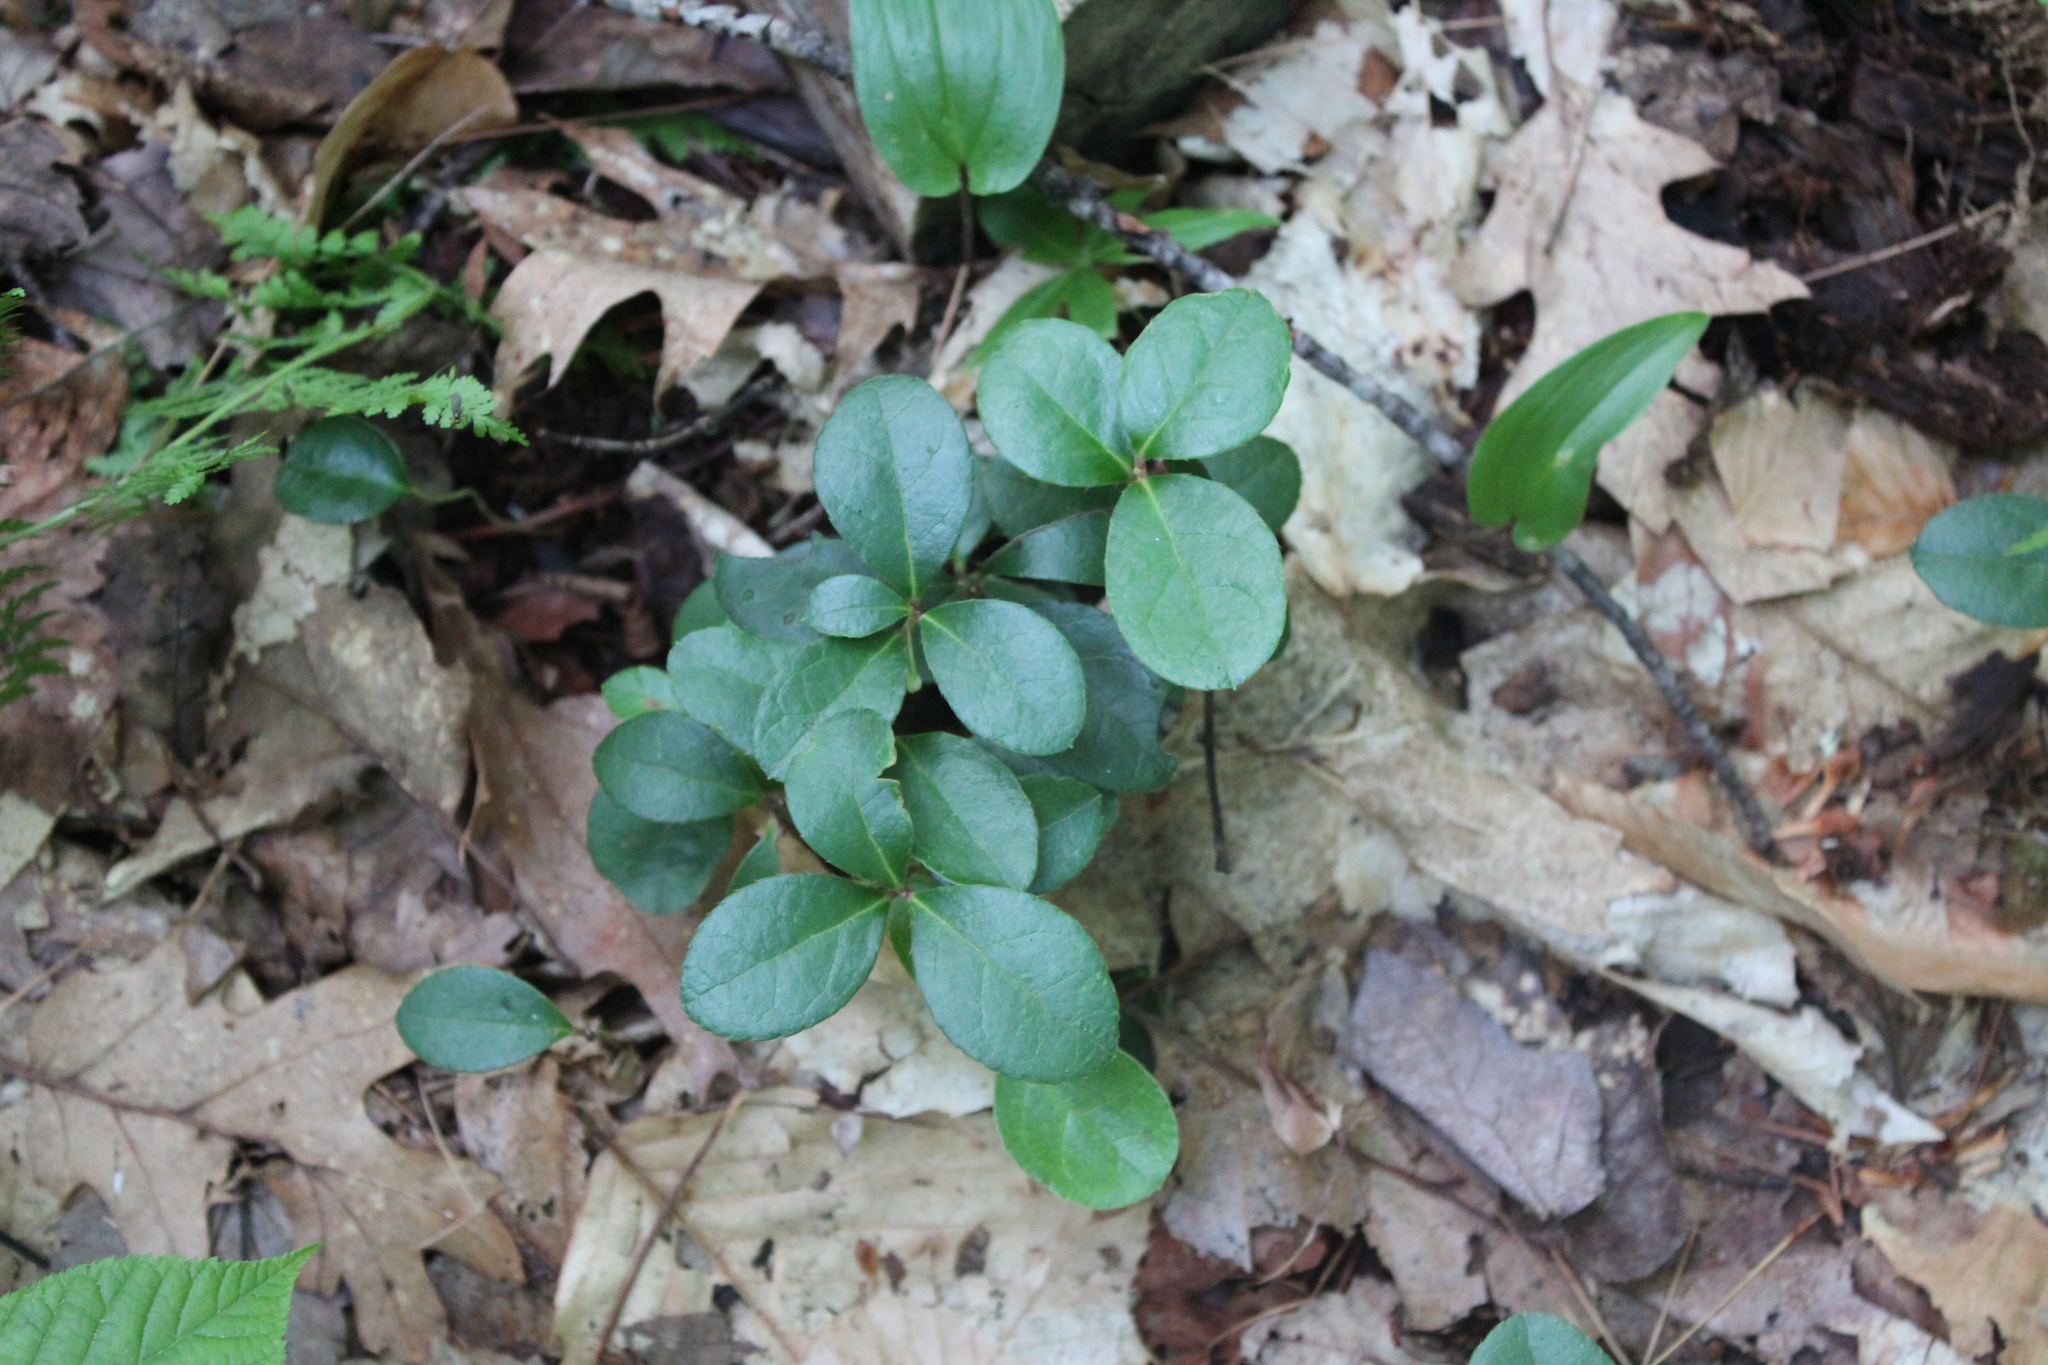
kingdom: Plantae
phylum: Tracheophyta
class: Magnoliopsida
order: Ericales
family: Ericaceae
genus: Gaultheria
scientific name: Gaultheria procumbens
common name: Checkerberry
